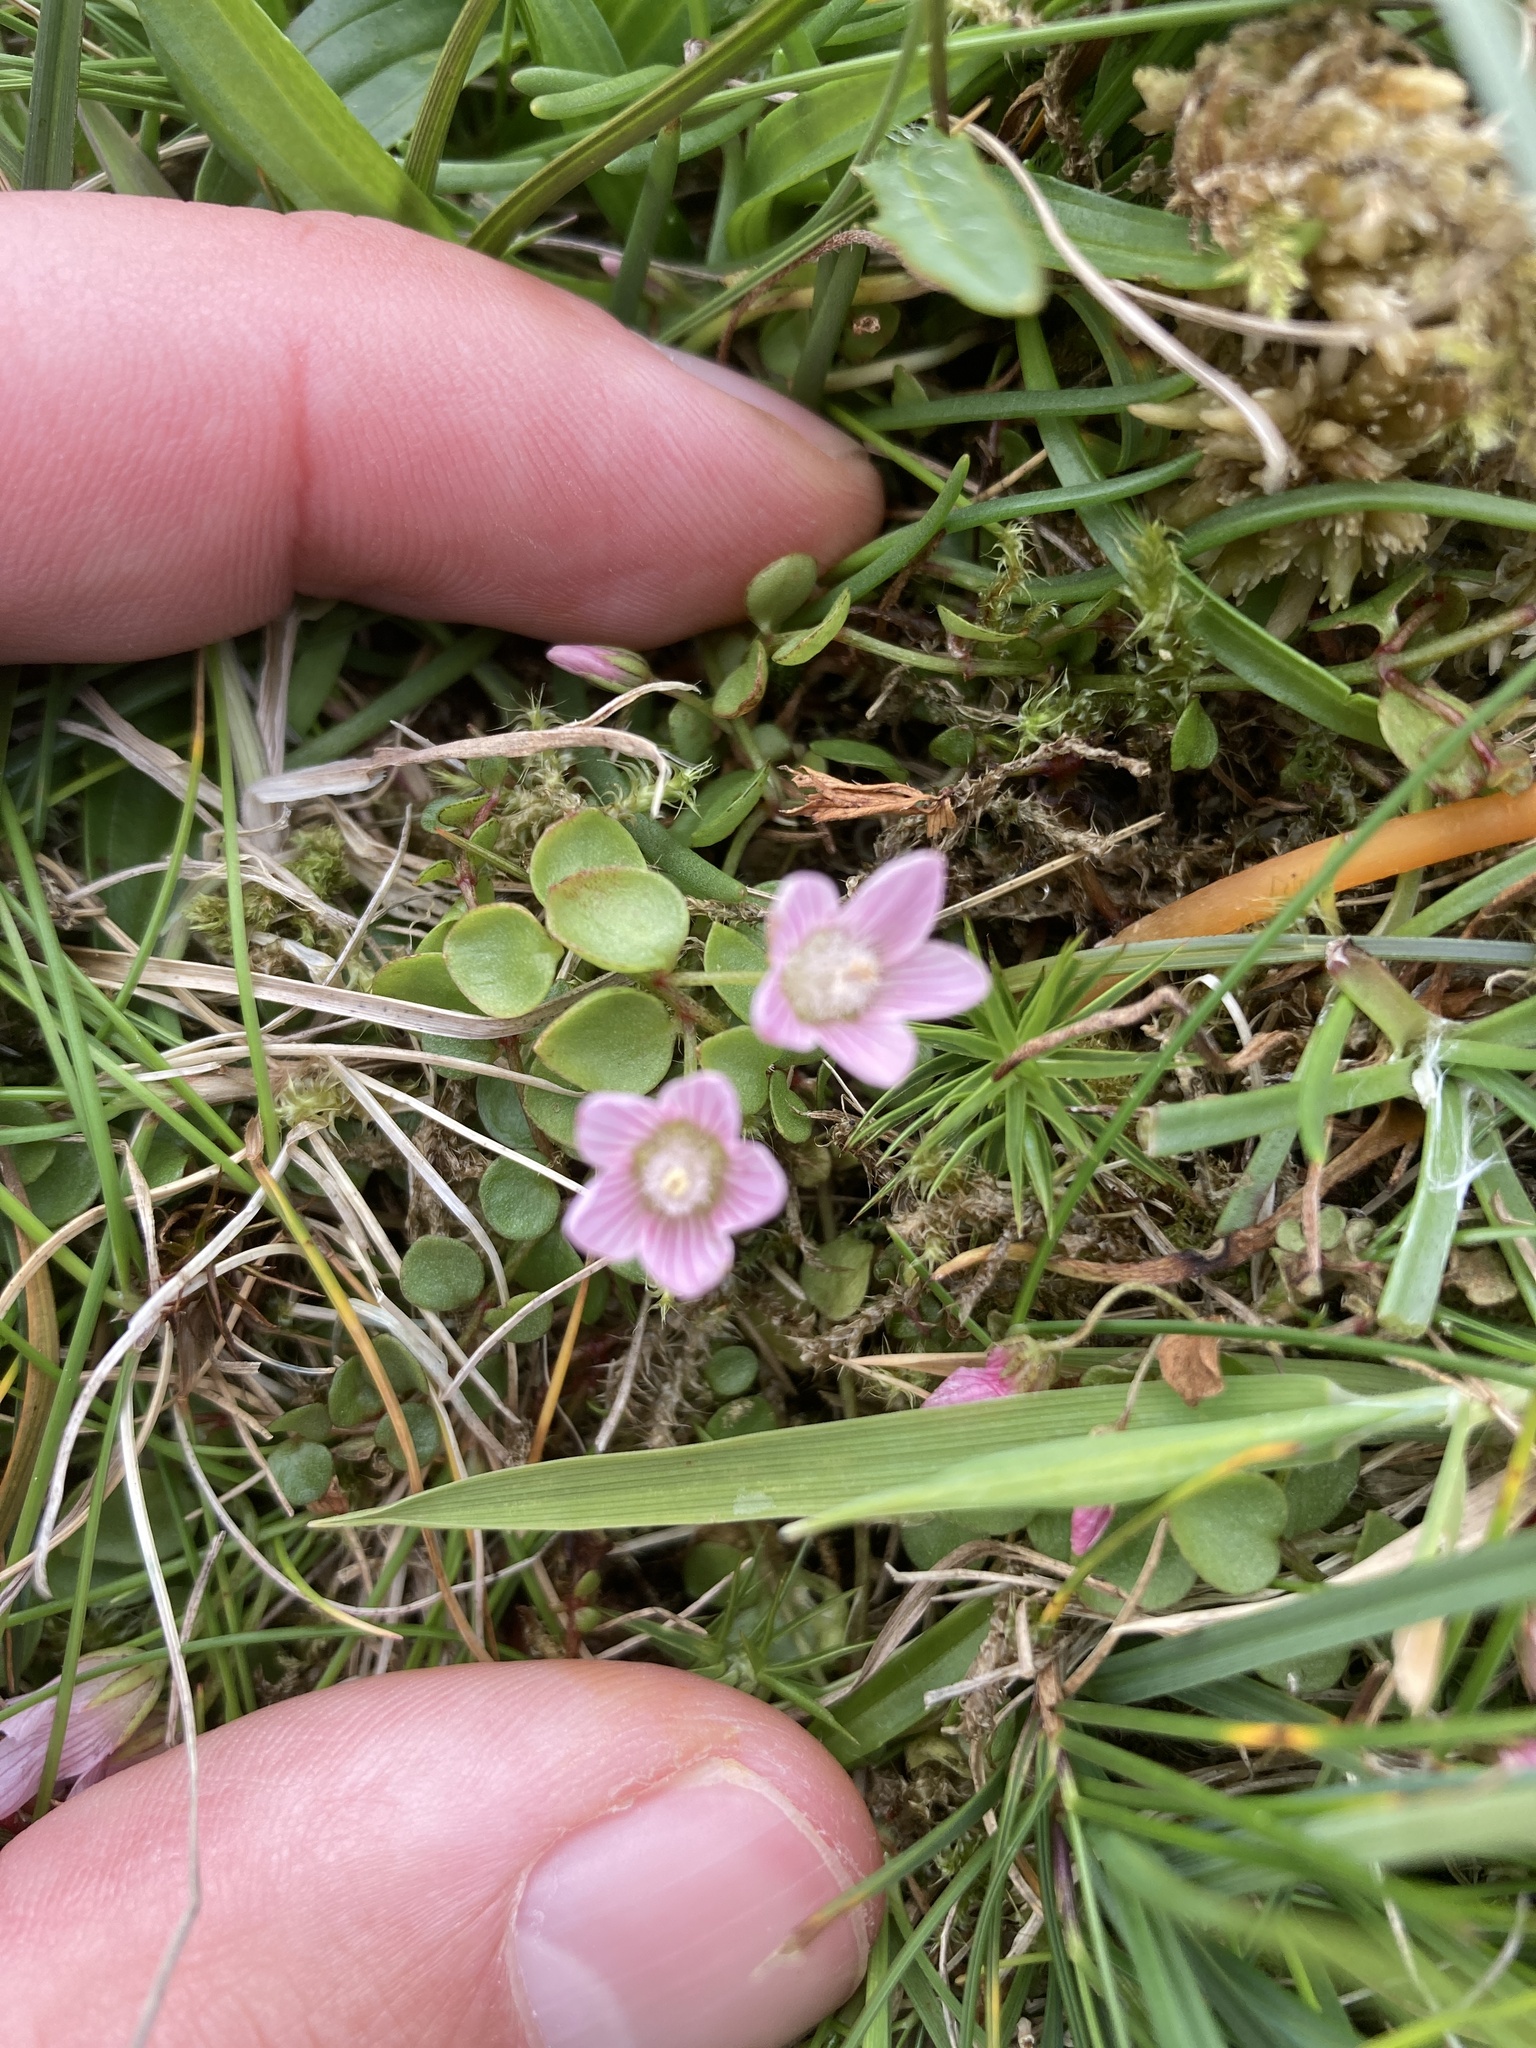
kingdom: Plantae
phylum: Tracheophyta
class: Magnoliopsida
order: Ericales
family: Primulaceae
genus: Lysimachia
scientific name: Lysimachia tenella
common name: European bog pimpernel
